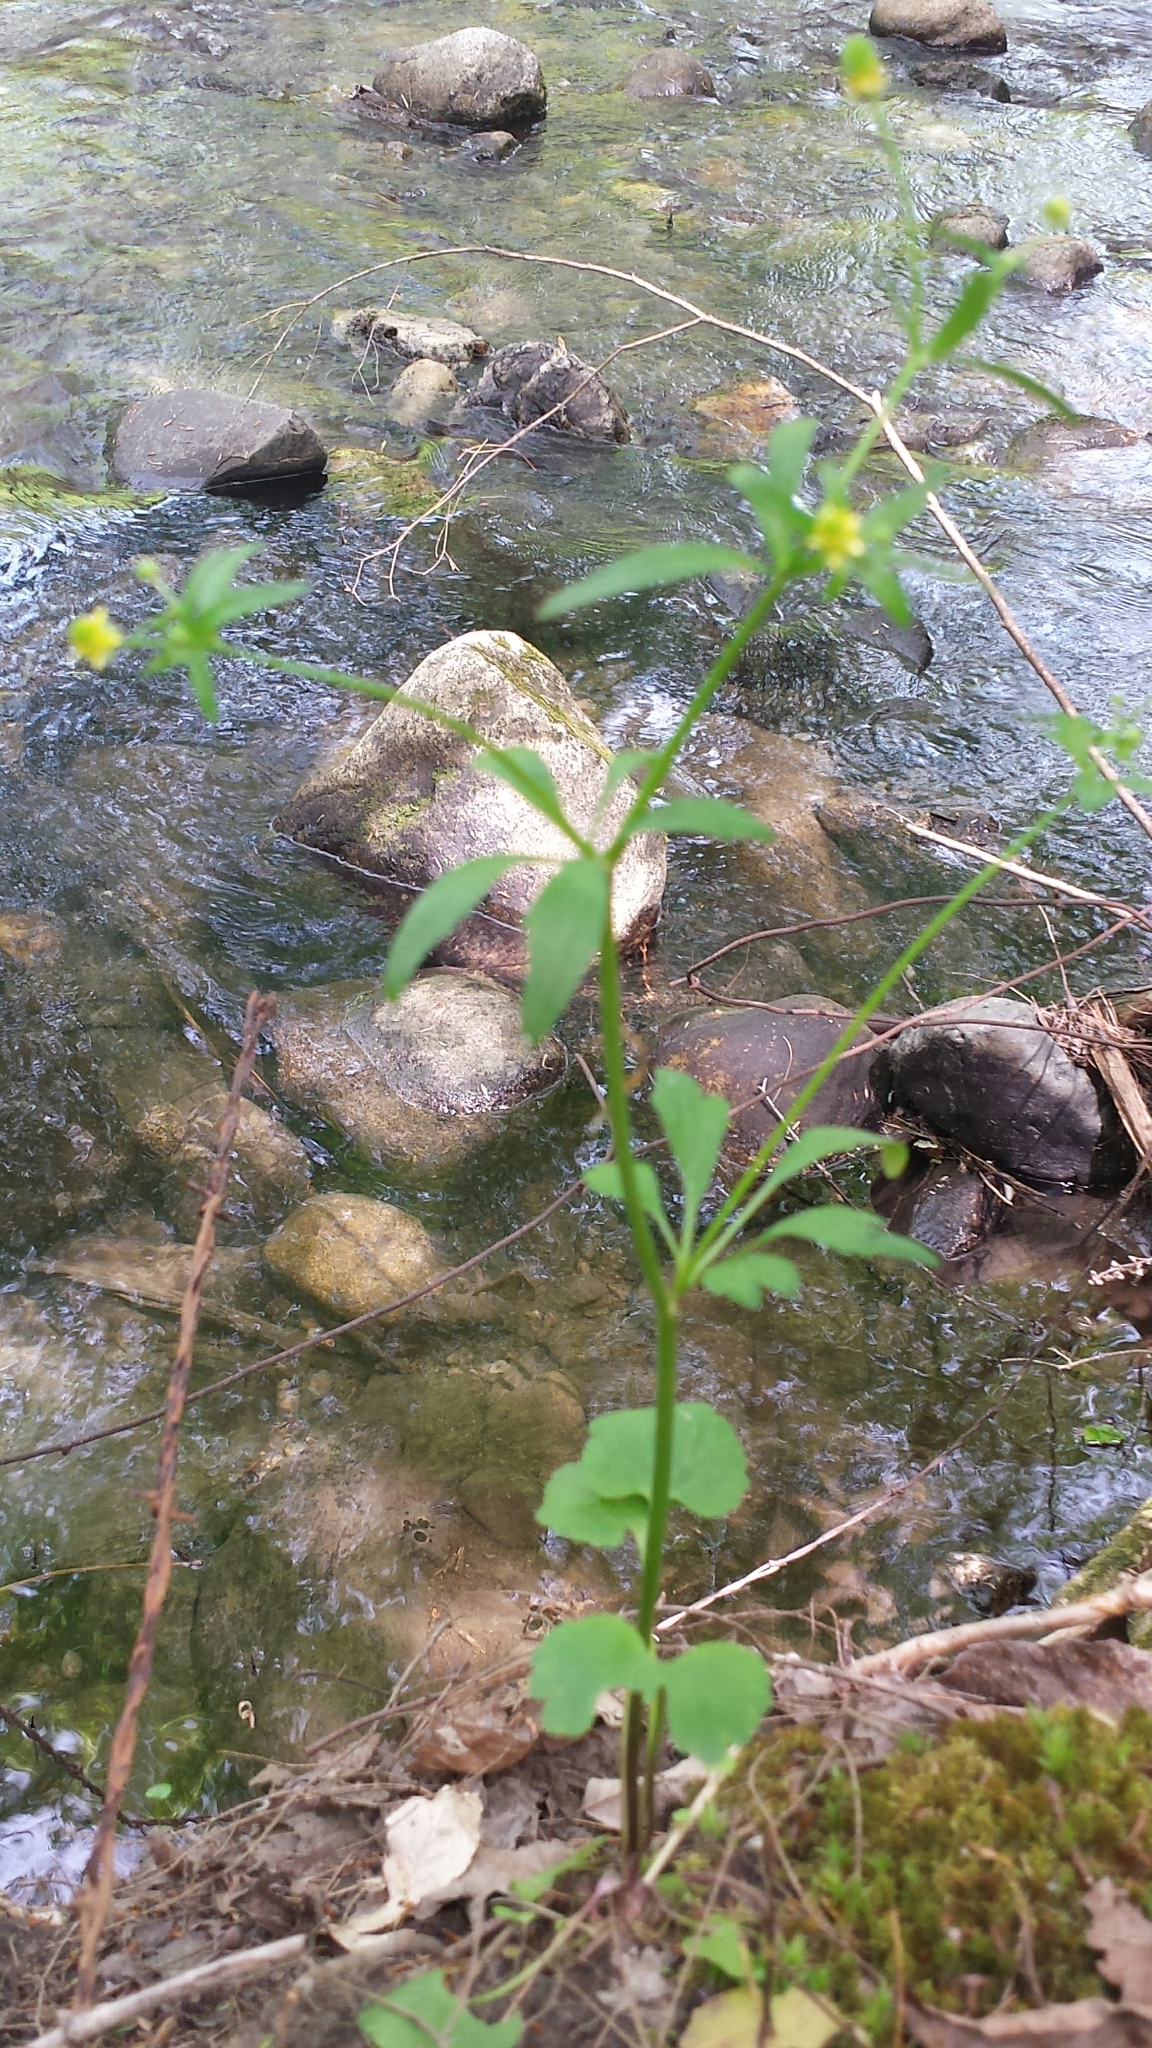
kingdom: Plantae
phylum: Tracheophyta
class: Magnoliopsida
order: Ranunculales
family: Ranunculaceae
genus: Ranunculus
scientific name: Ranunculus abortivus
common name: Early wood buttercup
